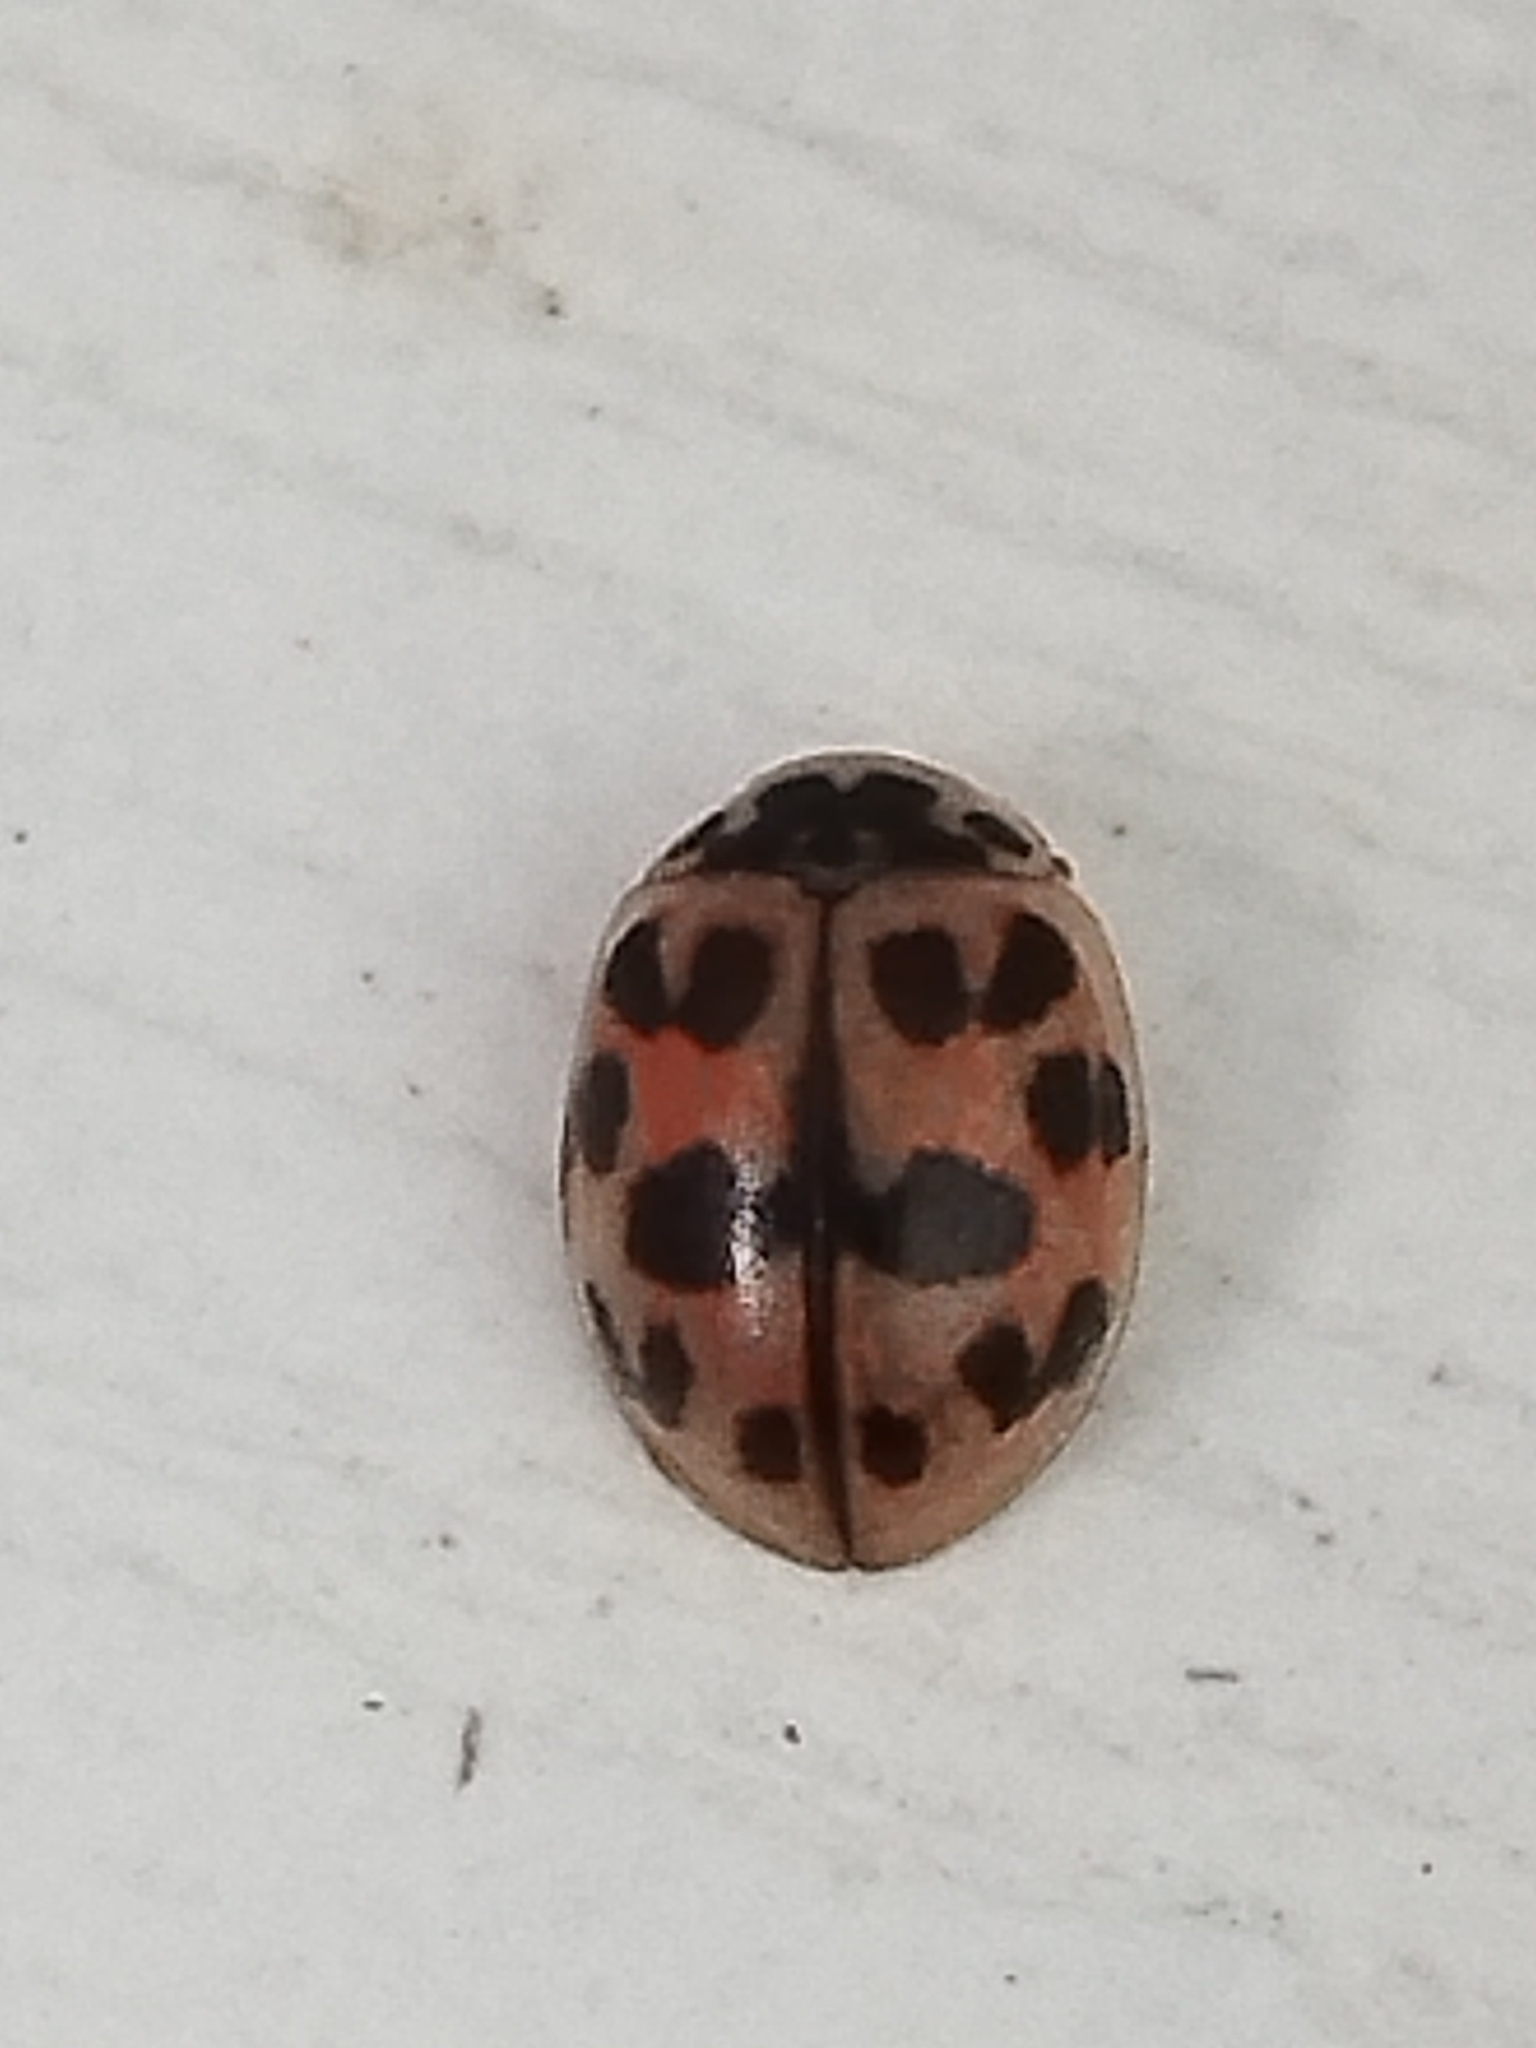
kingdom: Animalia
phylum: Arthropoda
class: Insecta
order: Coleoptera
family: Coccinellidae
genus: Oenopia
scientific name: Oenopia conglobata
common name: Ladybird beetle
